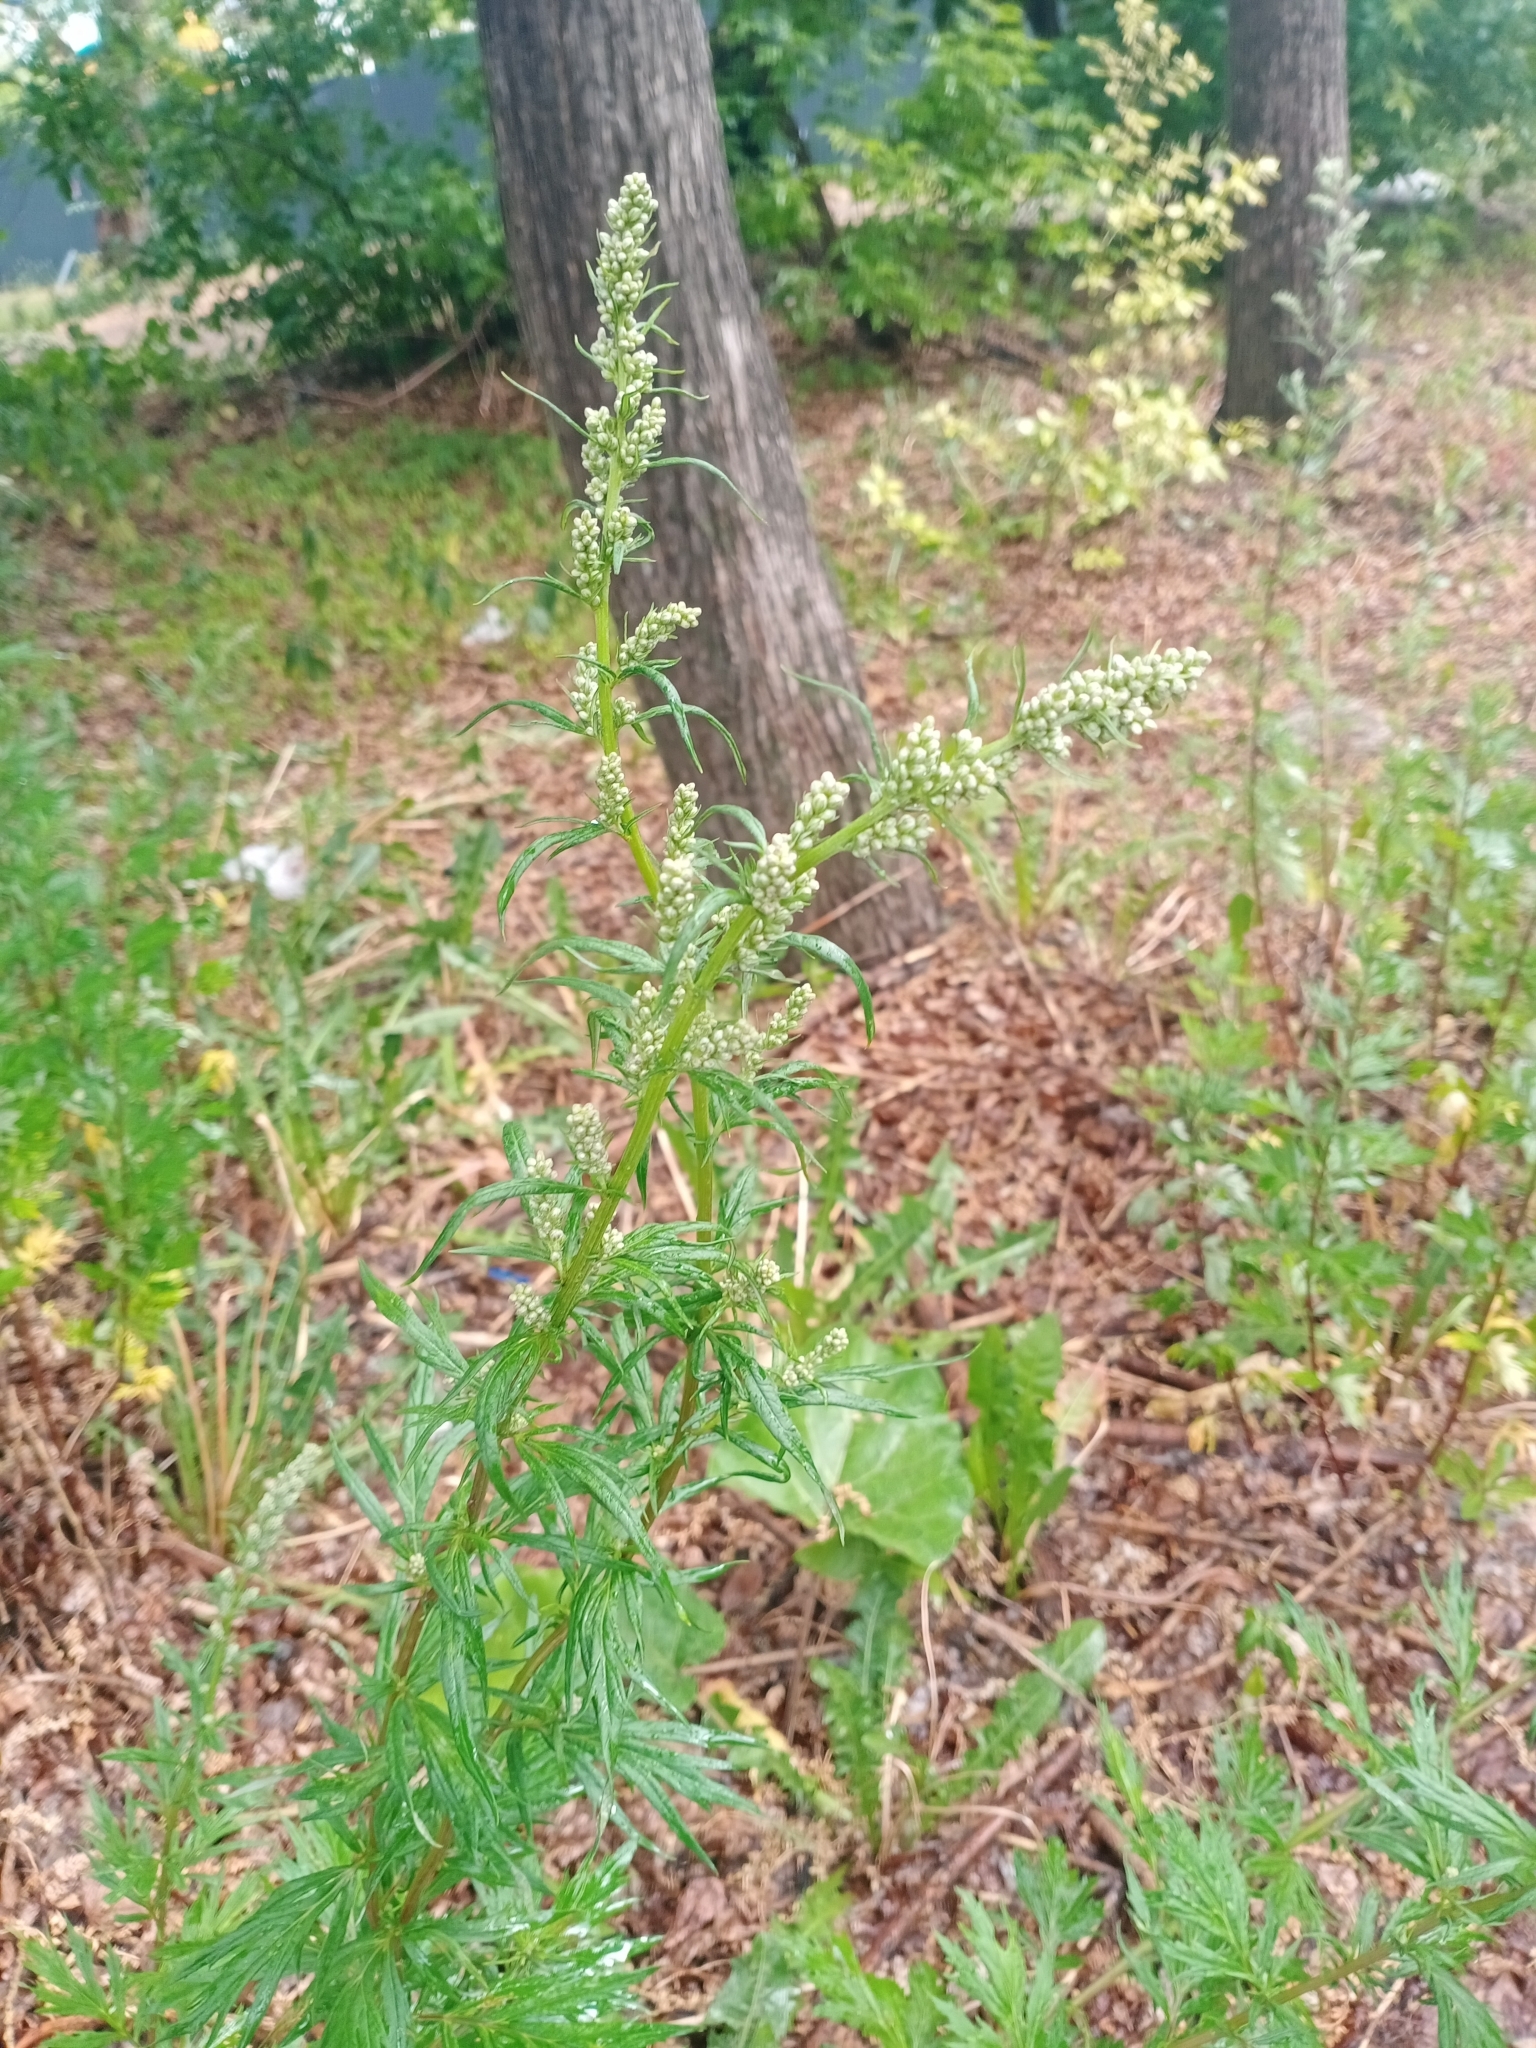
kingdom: Plantae
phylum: Tracheophyta
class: Magnoliopsida
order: Asterales
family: Asteraceae
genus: Artemisia
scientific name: Artemisia vulgaris
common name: Mugwort
